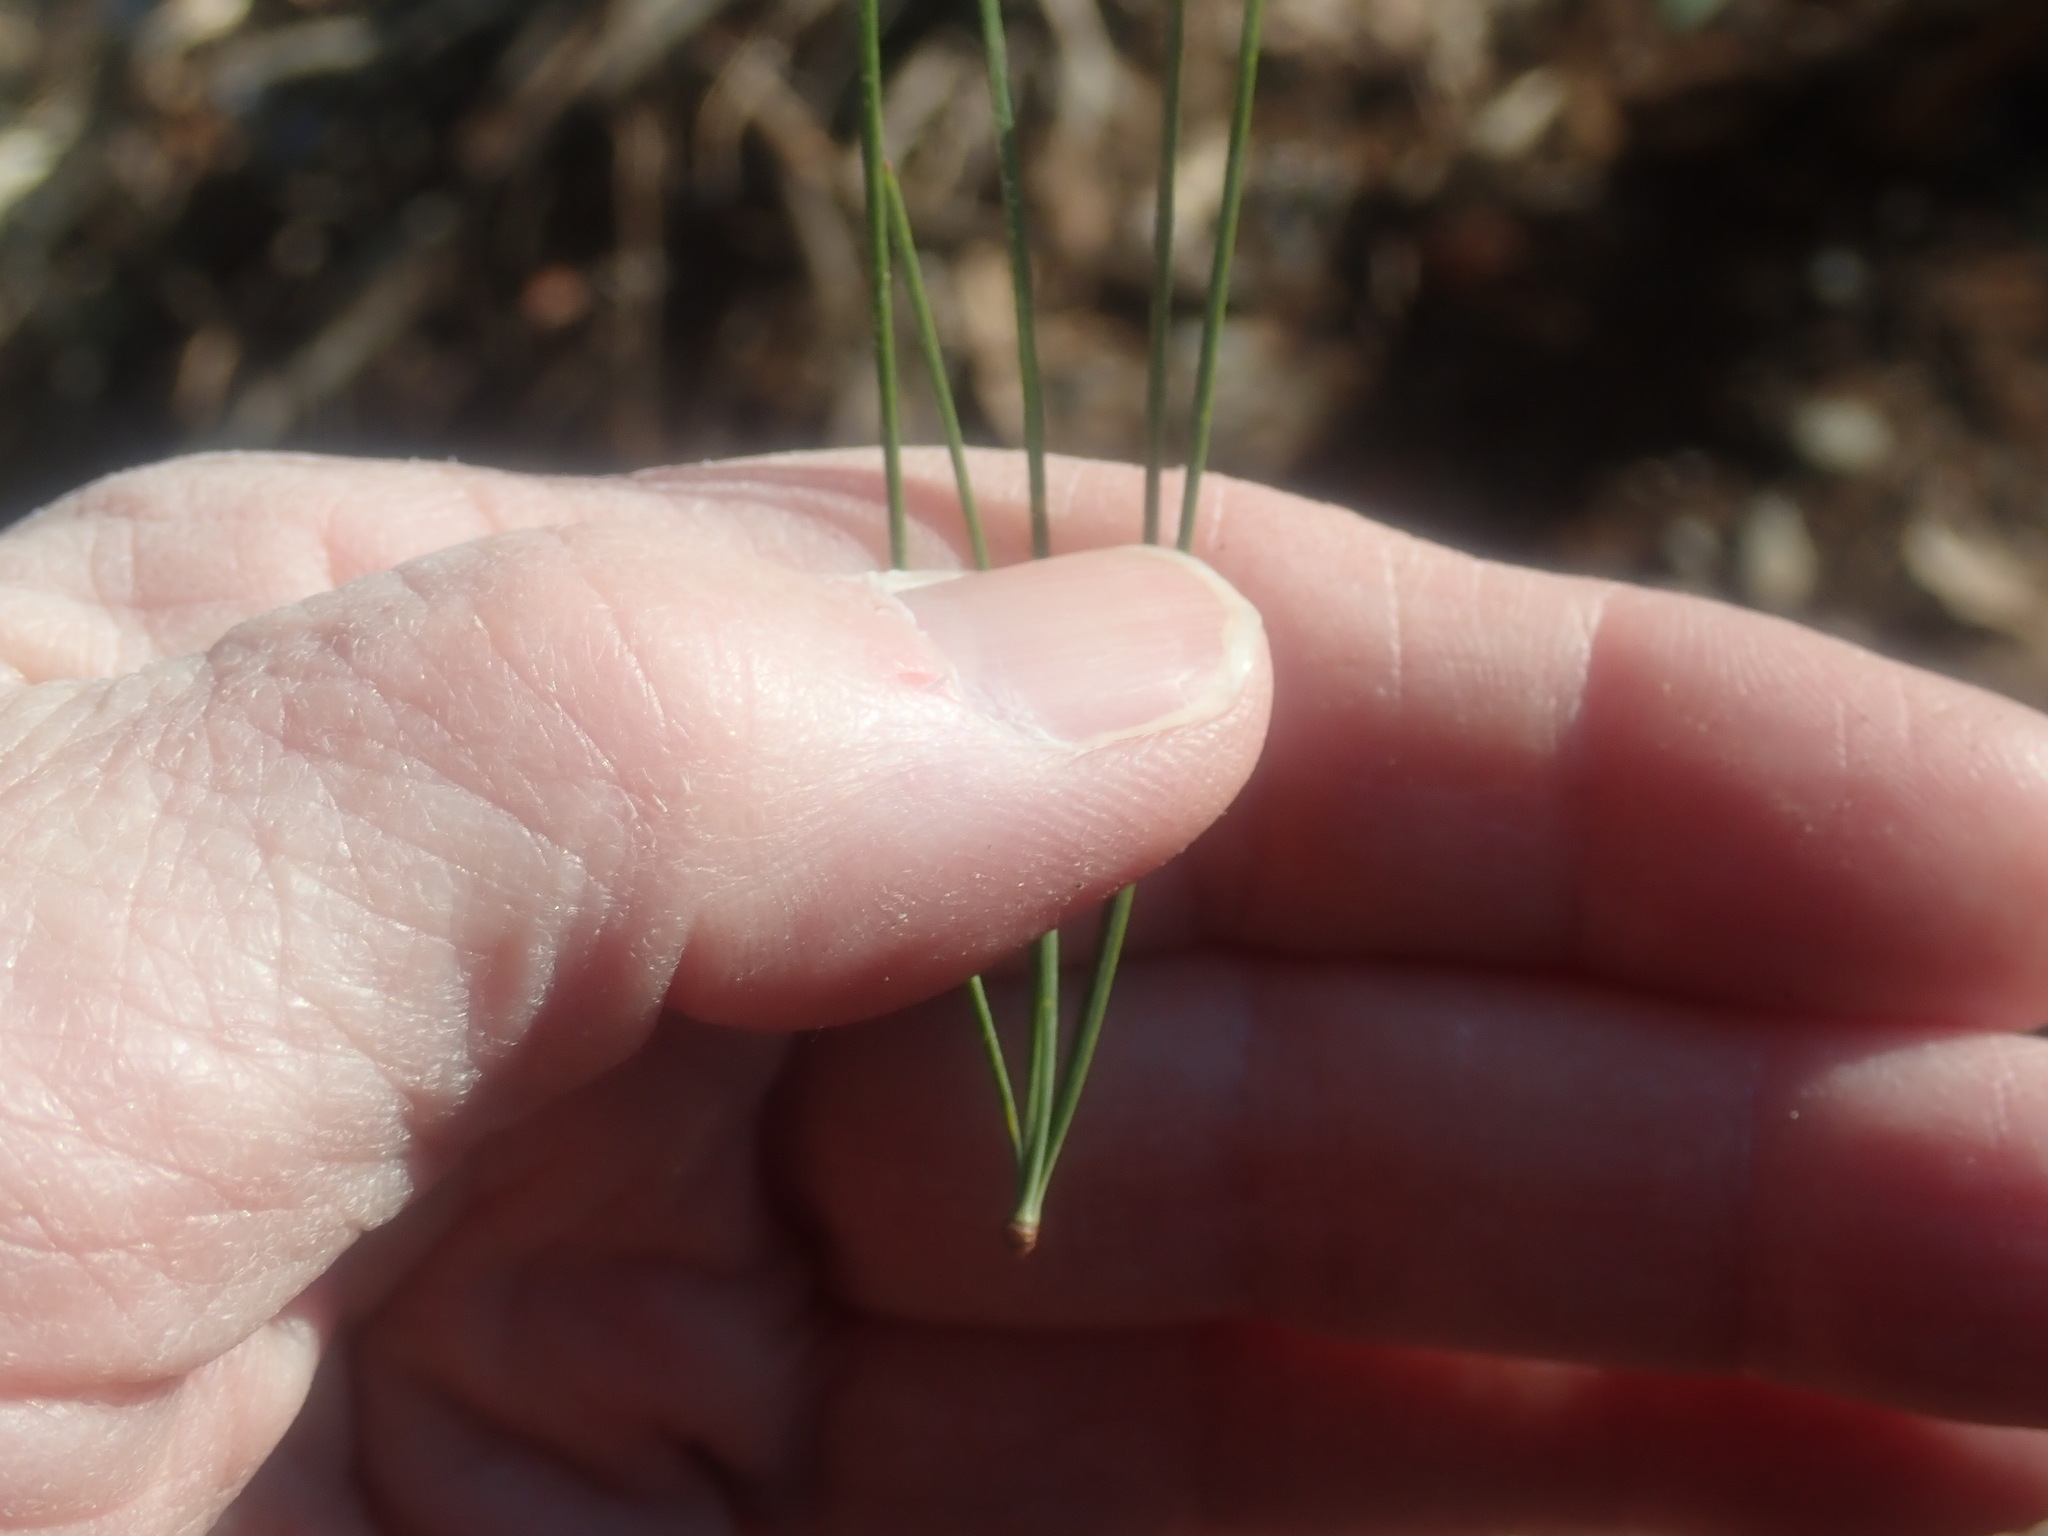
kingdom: Plantae
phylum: Tracheophyta
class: Pinopsida
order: Pinales
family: Pinaceae
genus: Pinus
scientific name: Pinus strobus
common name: Weymouth pine
